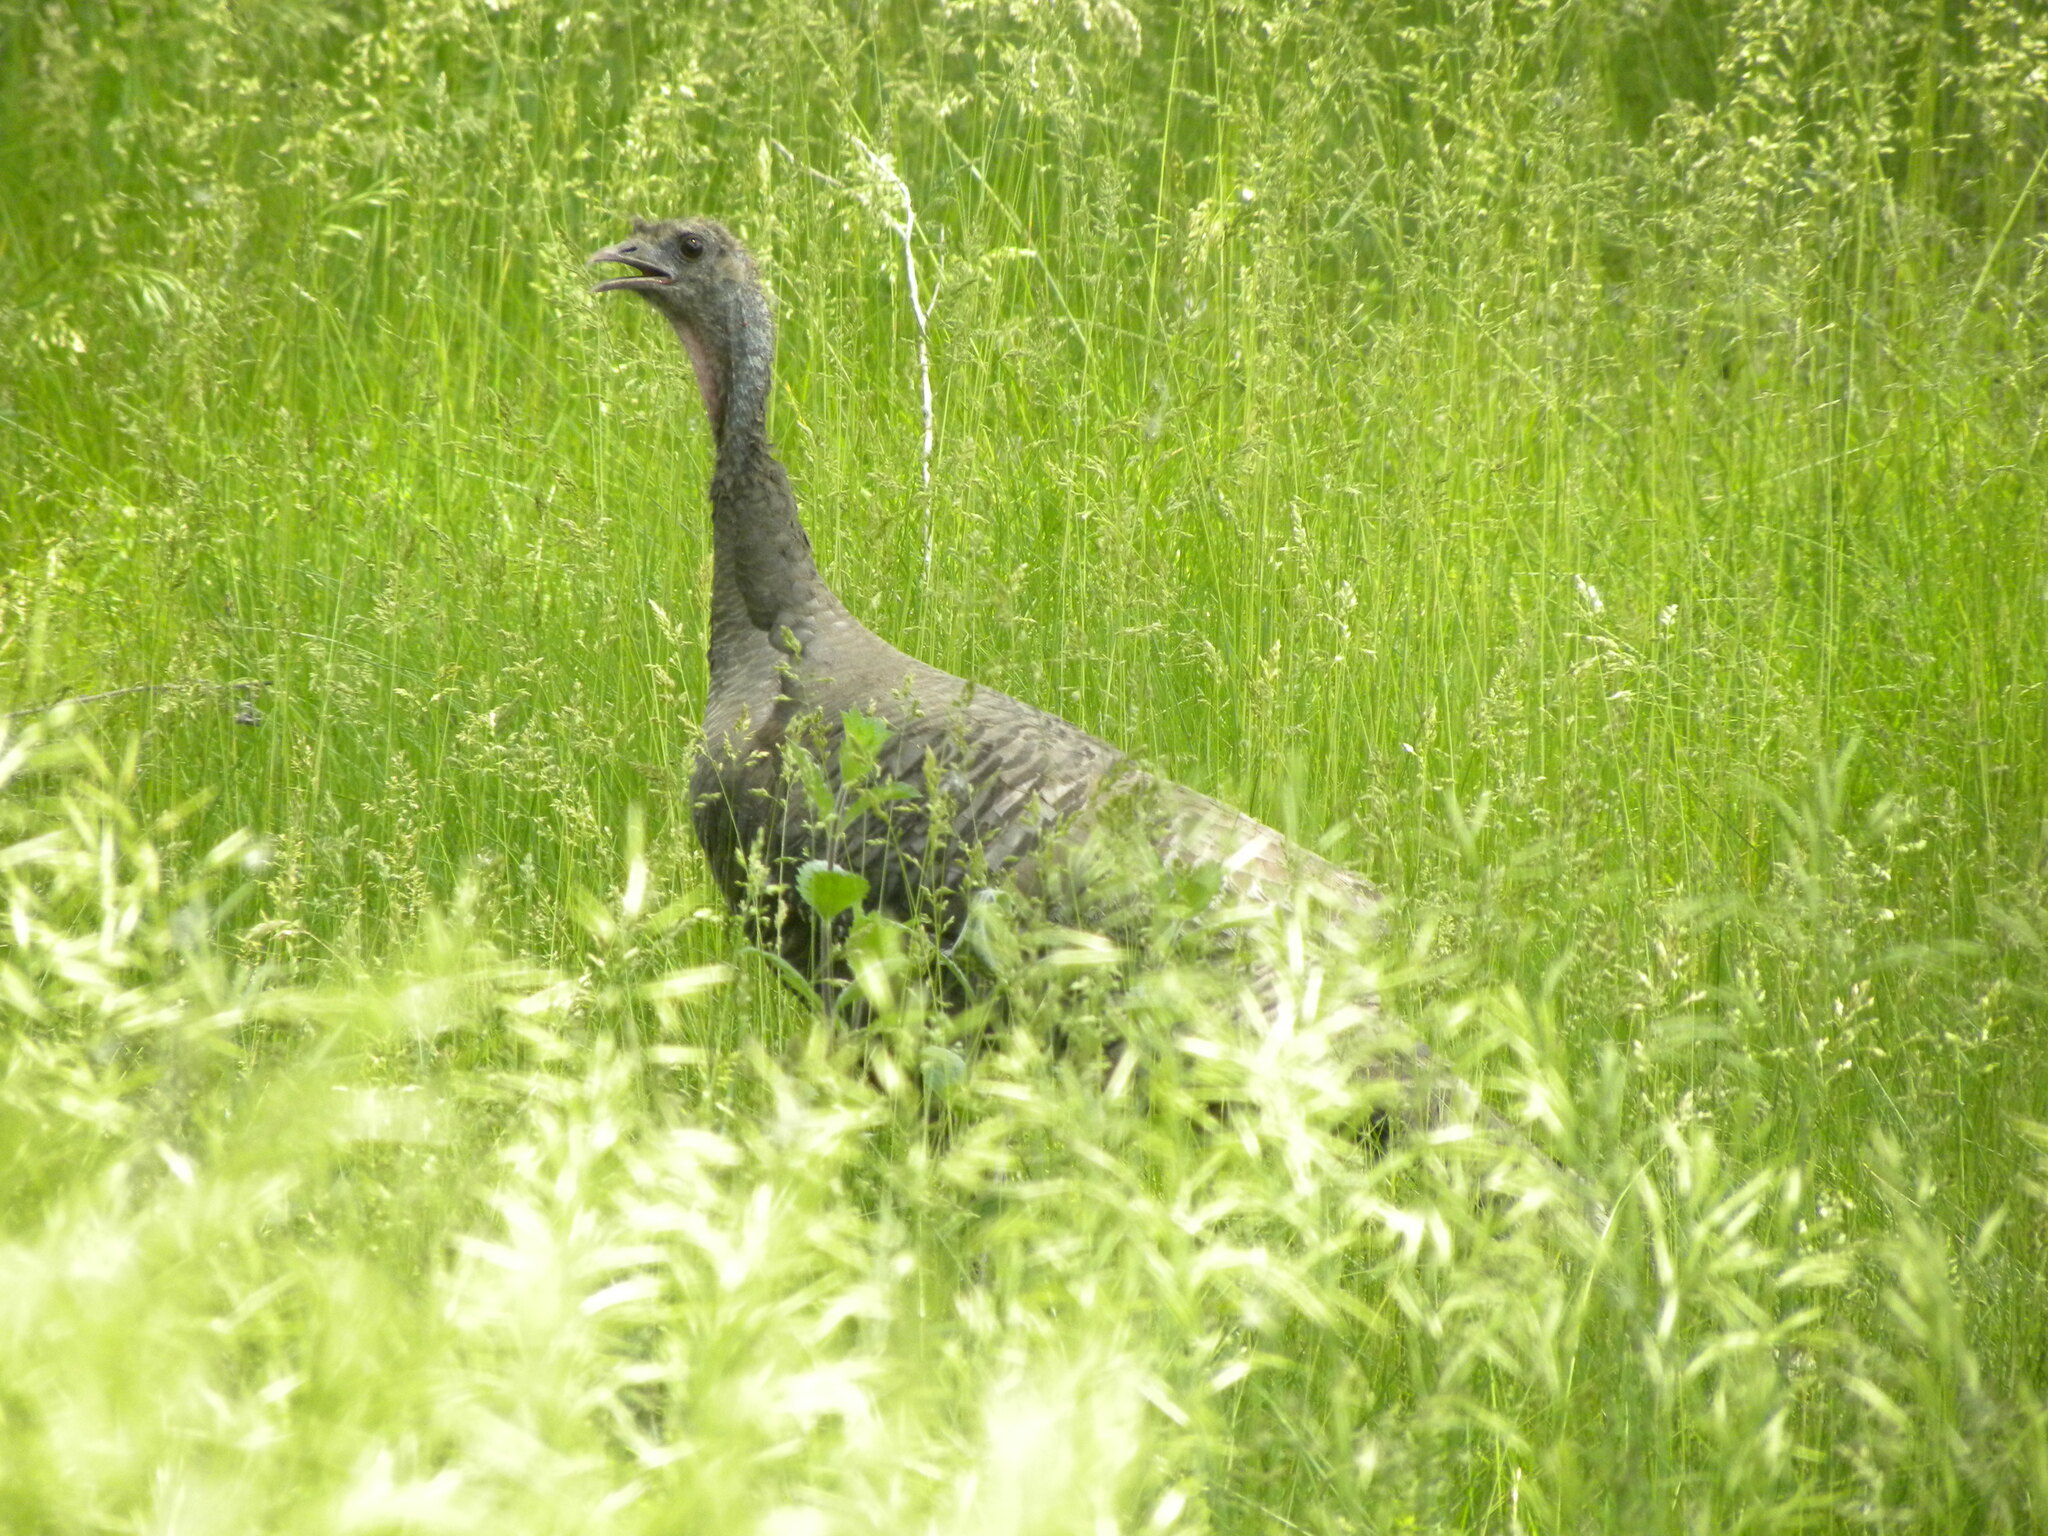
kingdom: Animalia
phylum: Chordata
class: Aves
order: Galliformes
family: Phasianidae
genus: Meleagris
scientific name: Meleagris gallopavo
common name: Wild turkey
